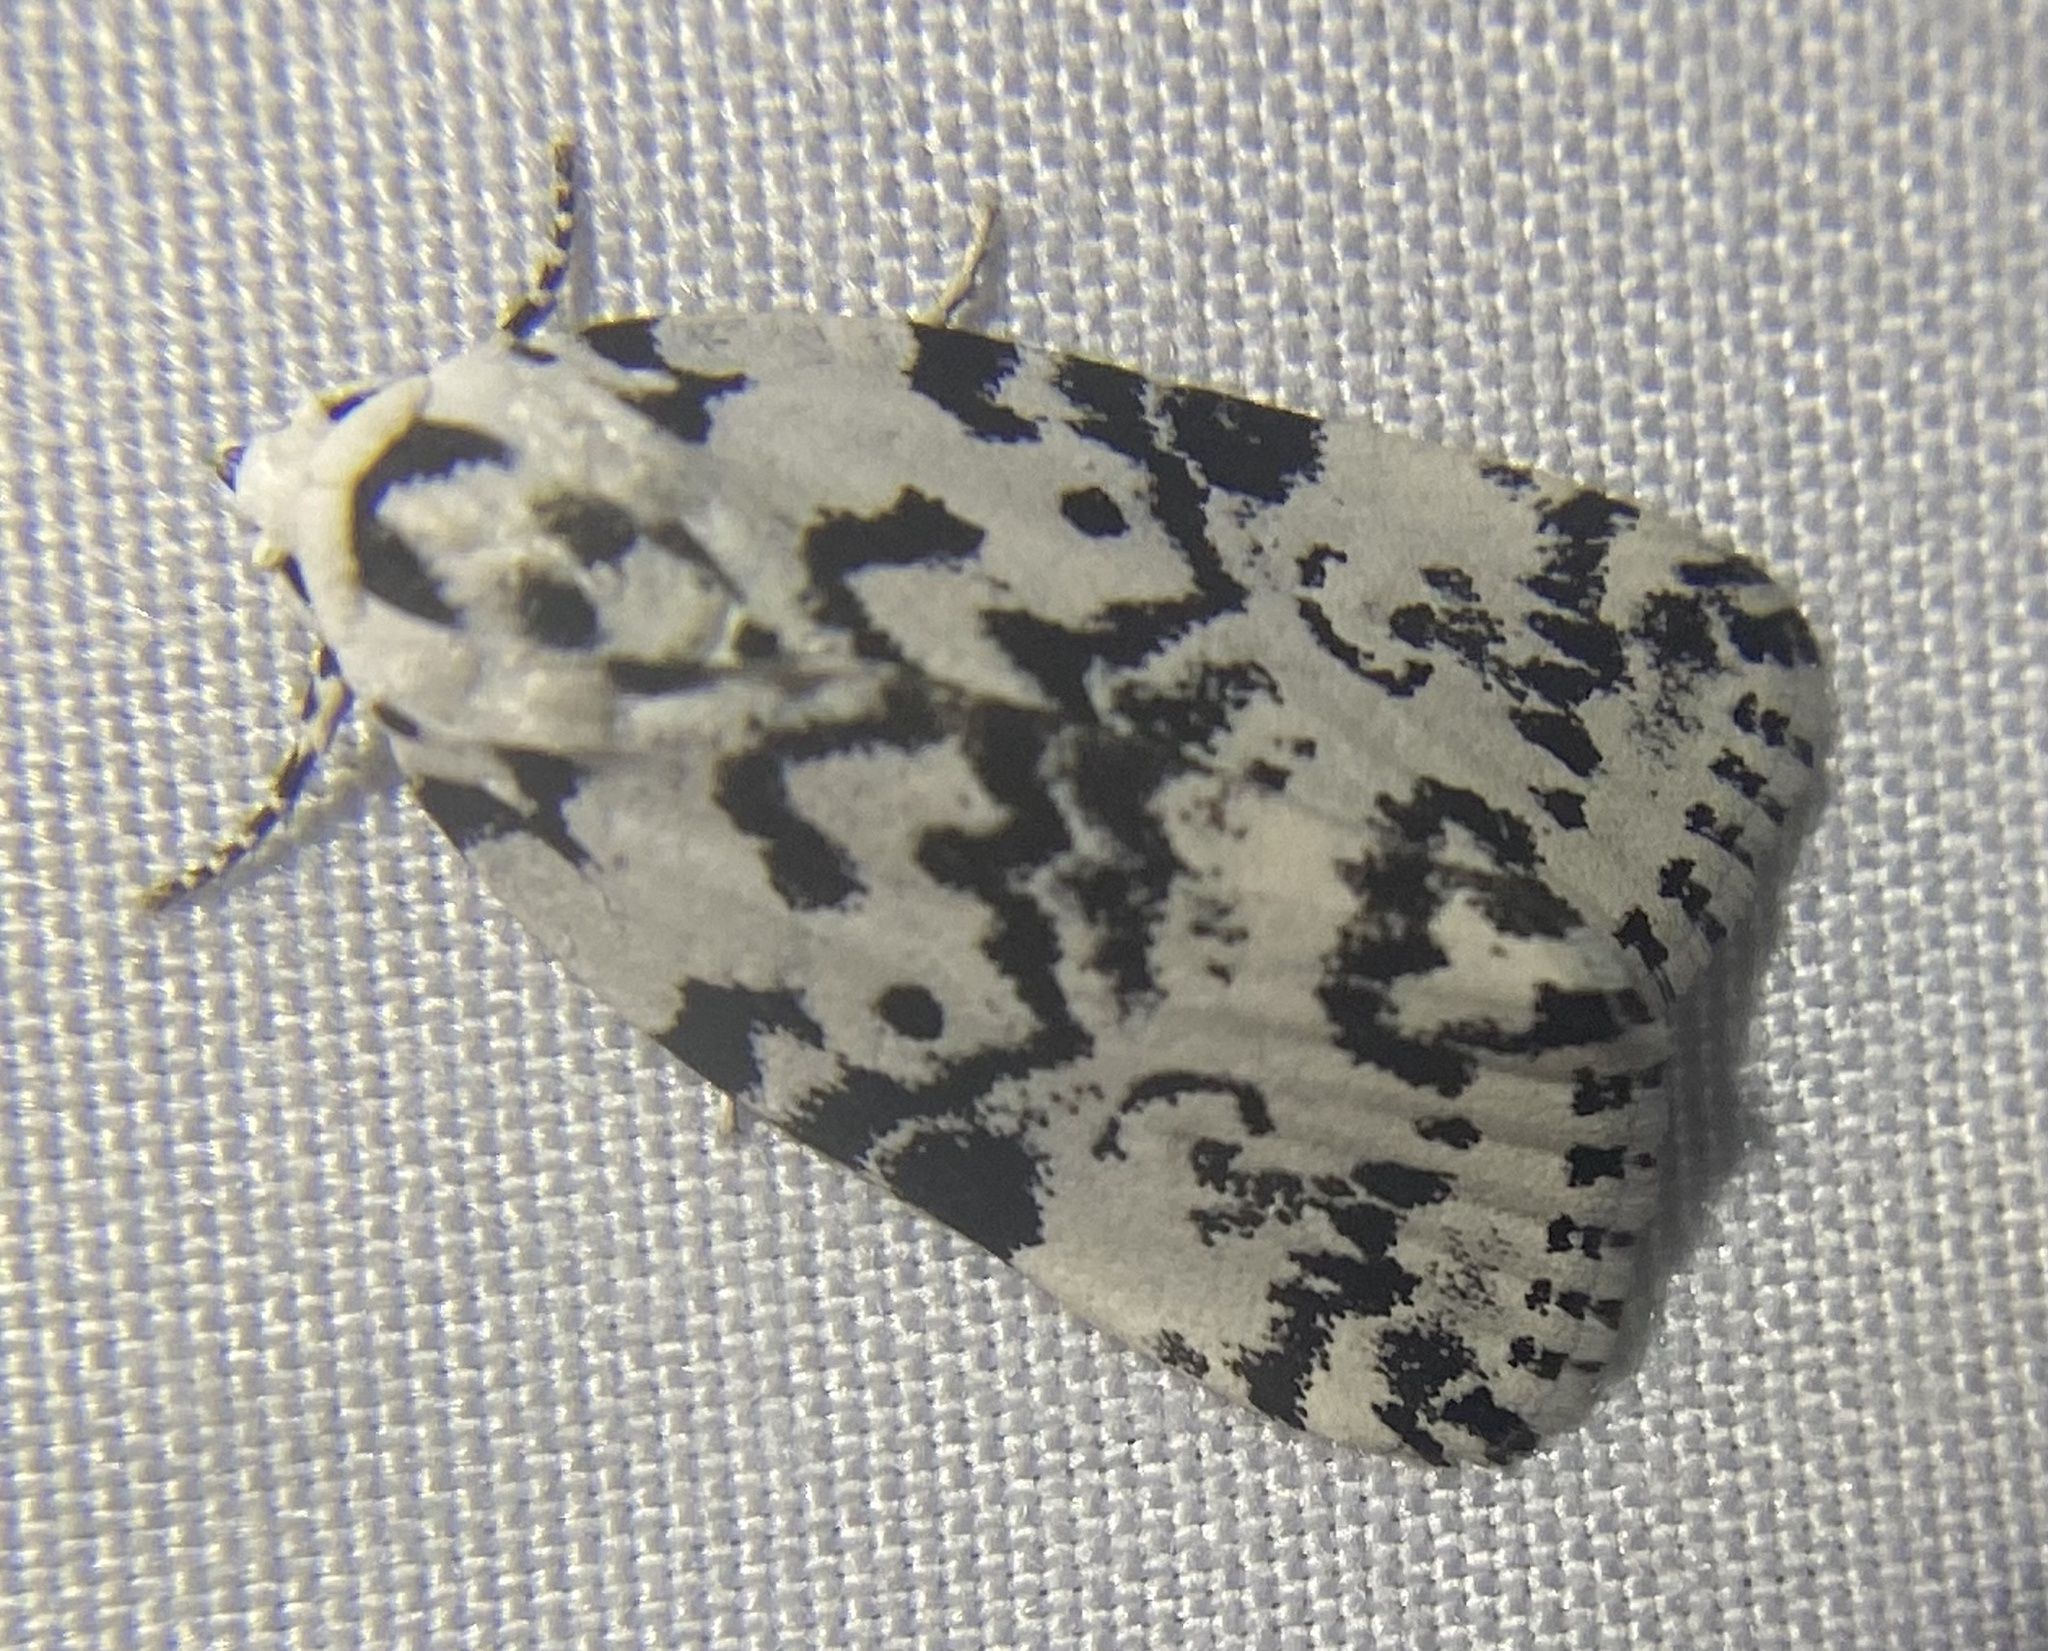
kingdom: Animalia
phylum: Arthropoda
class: Insecta
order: Lepidoptera
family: Noctuidae
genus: Polygrammate
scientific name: Polygrammate hebraeicum
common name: Hebrew moth
